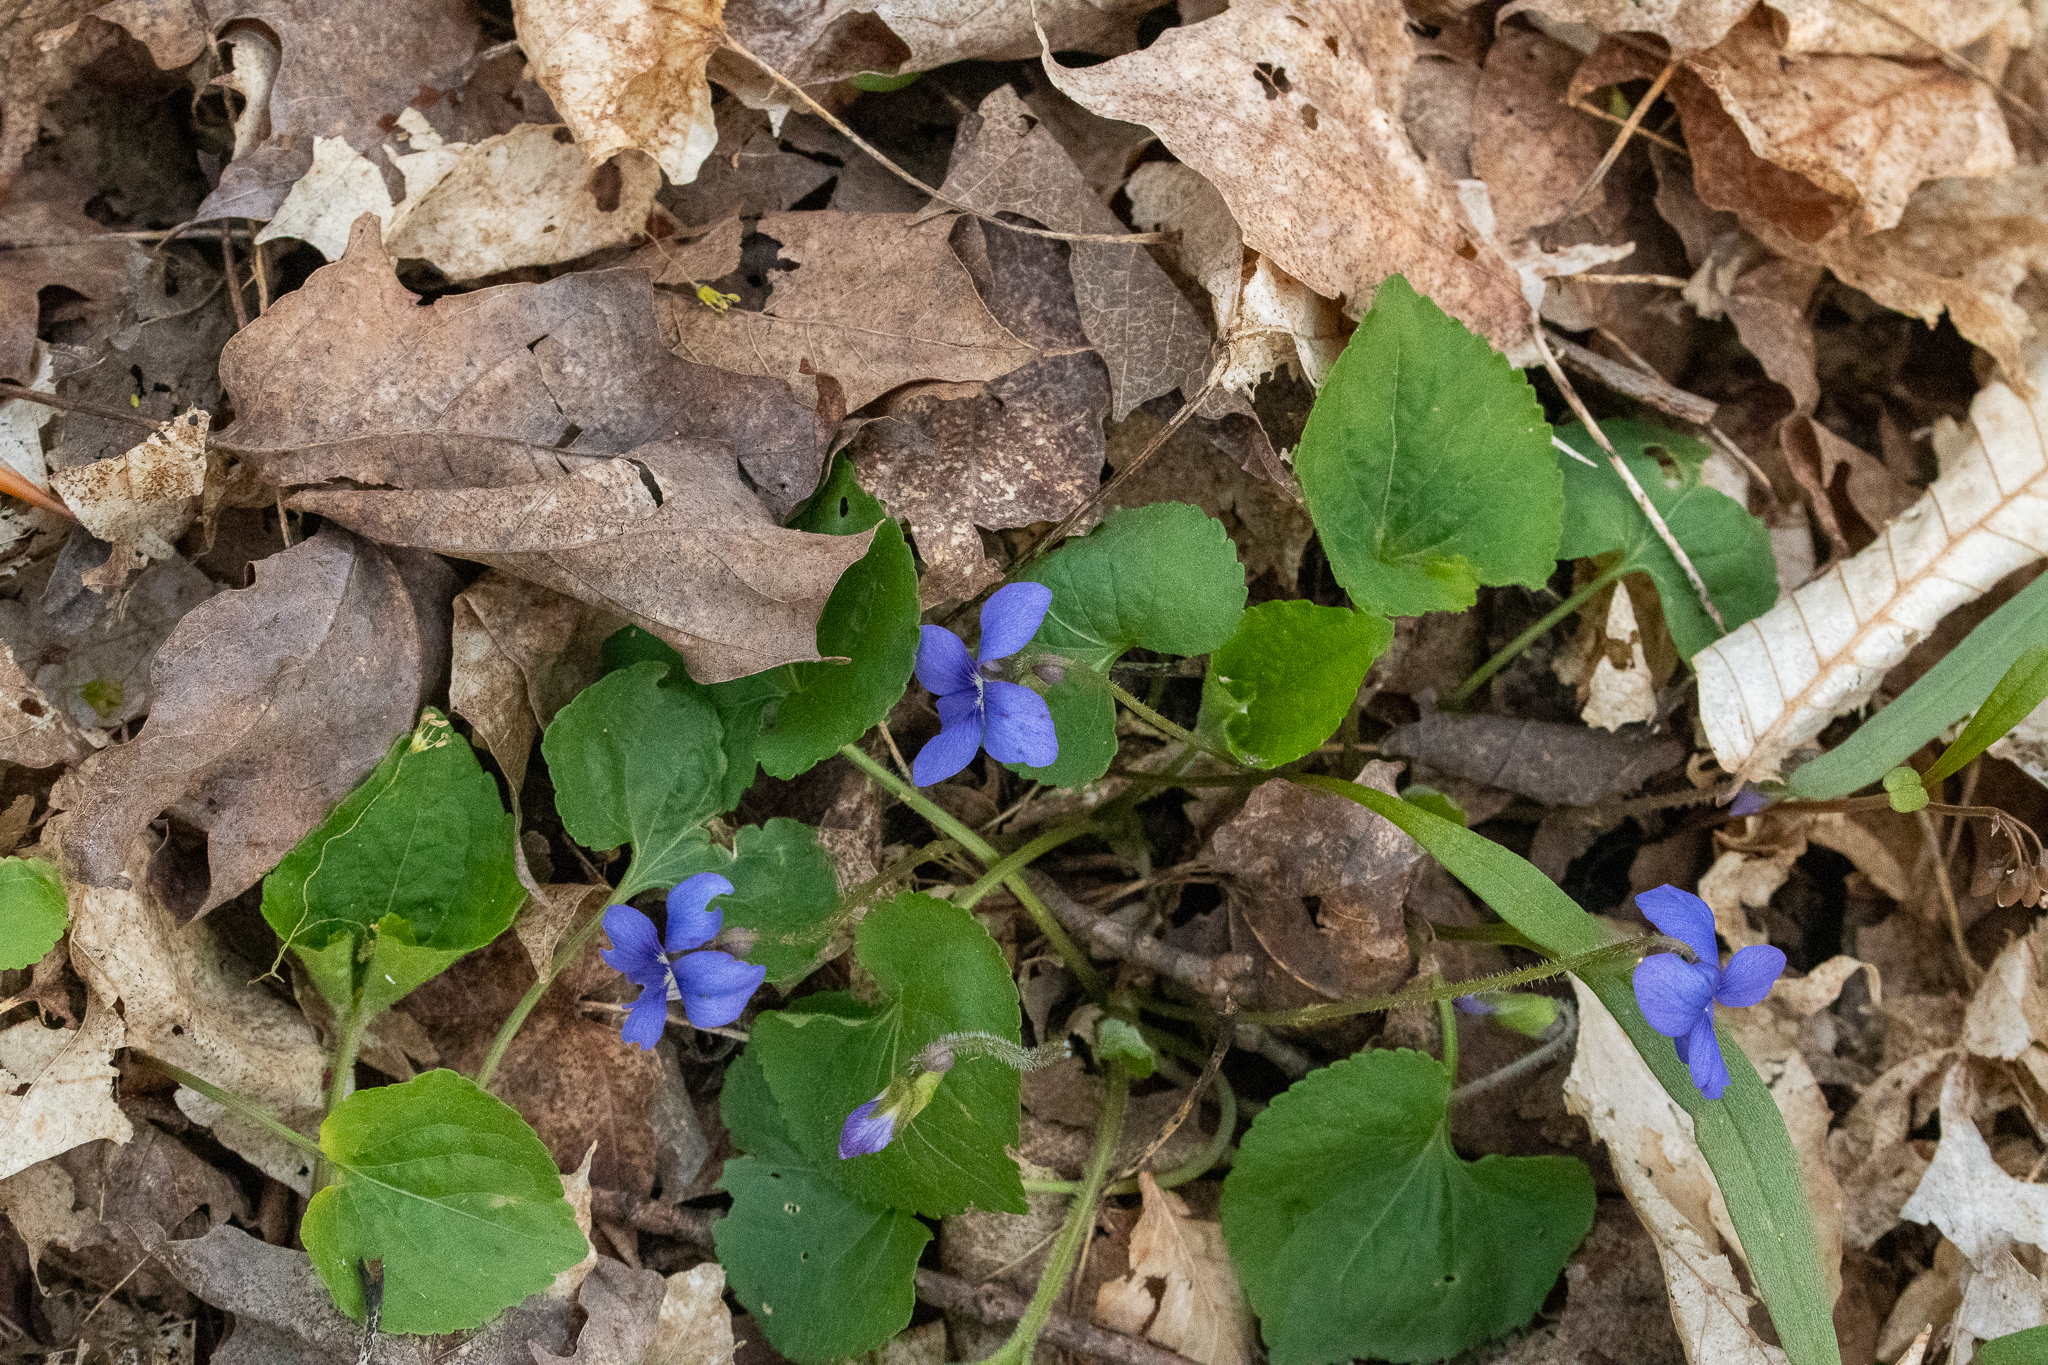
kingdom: Plantae
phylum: Tracheophyta
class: Magnoliopsida
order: Malpighiales
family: Violaceae
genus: Viola
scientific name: Viola sororia
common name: Dooryard violet
